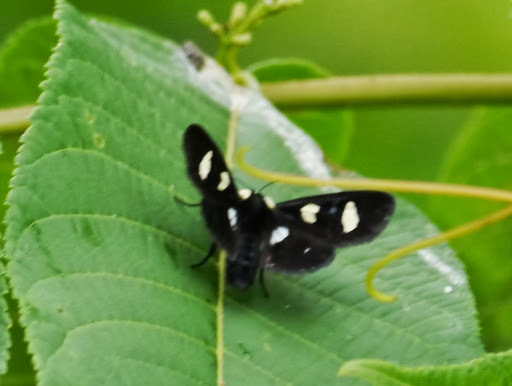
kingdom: Animalia
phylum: Arthropoda
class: Insecta
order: Lepidoptera
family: Noctuidae
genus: Alypia
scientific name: Alypia octomaculata
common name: Eight-spotted forester
